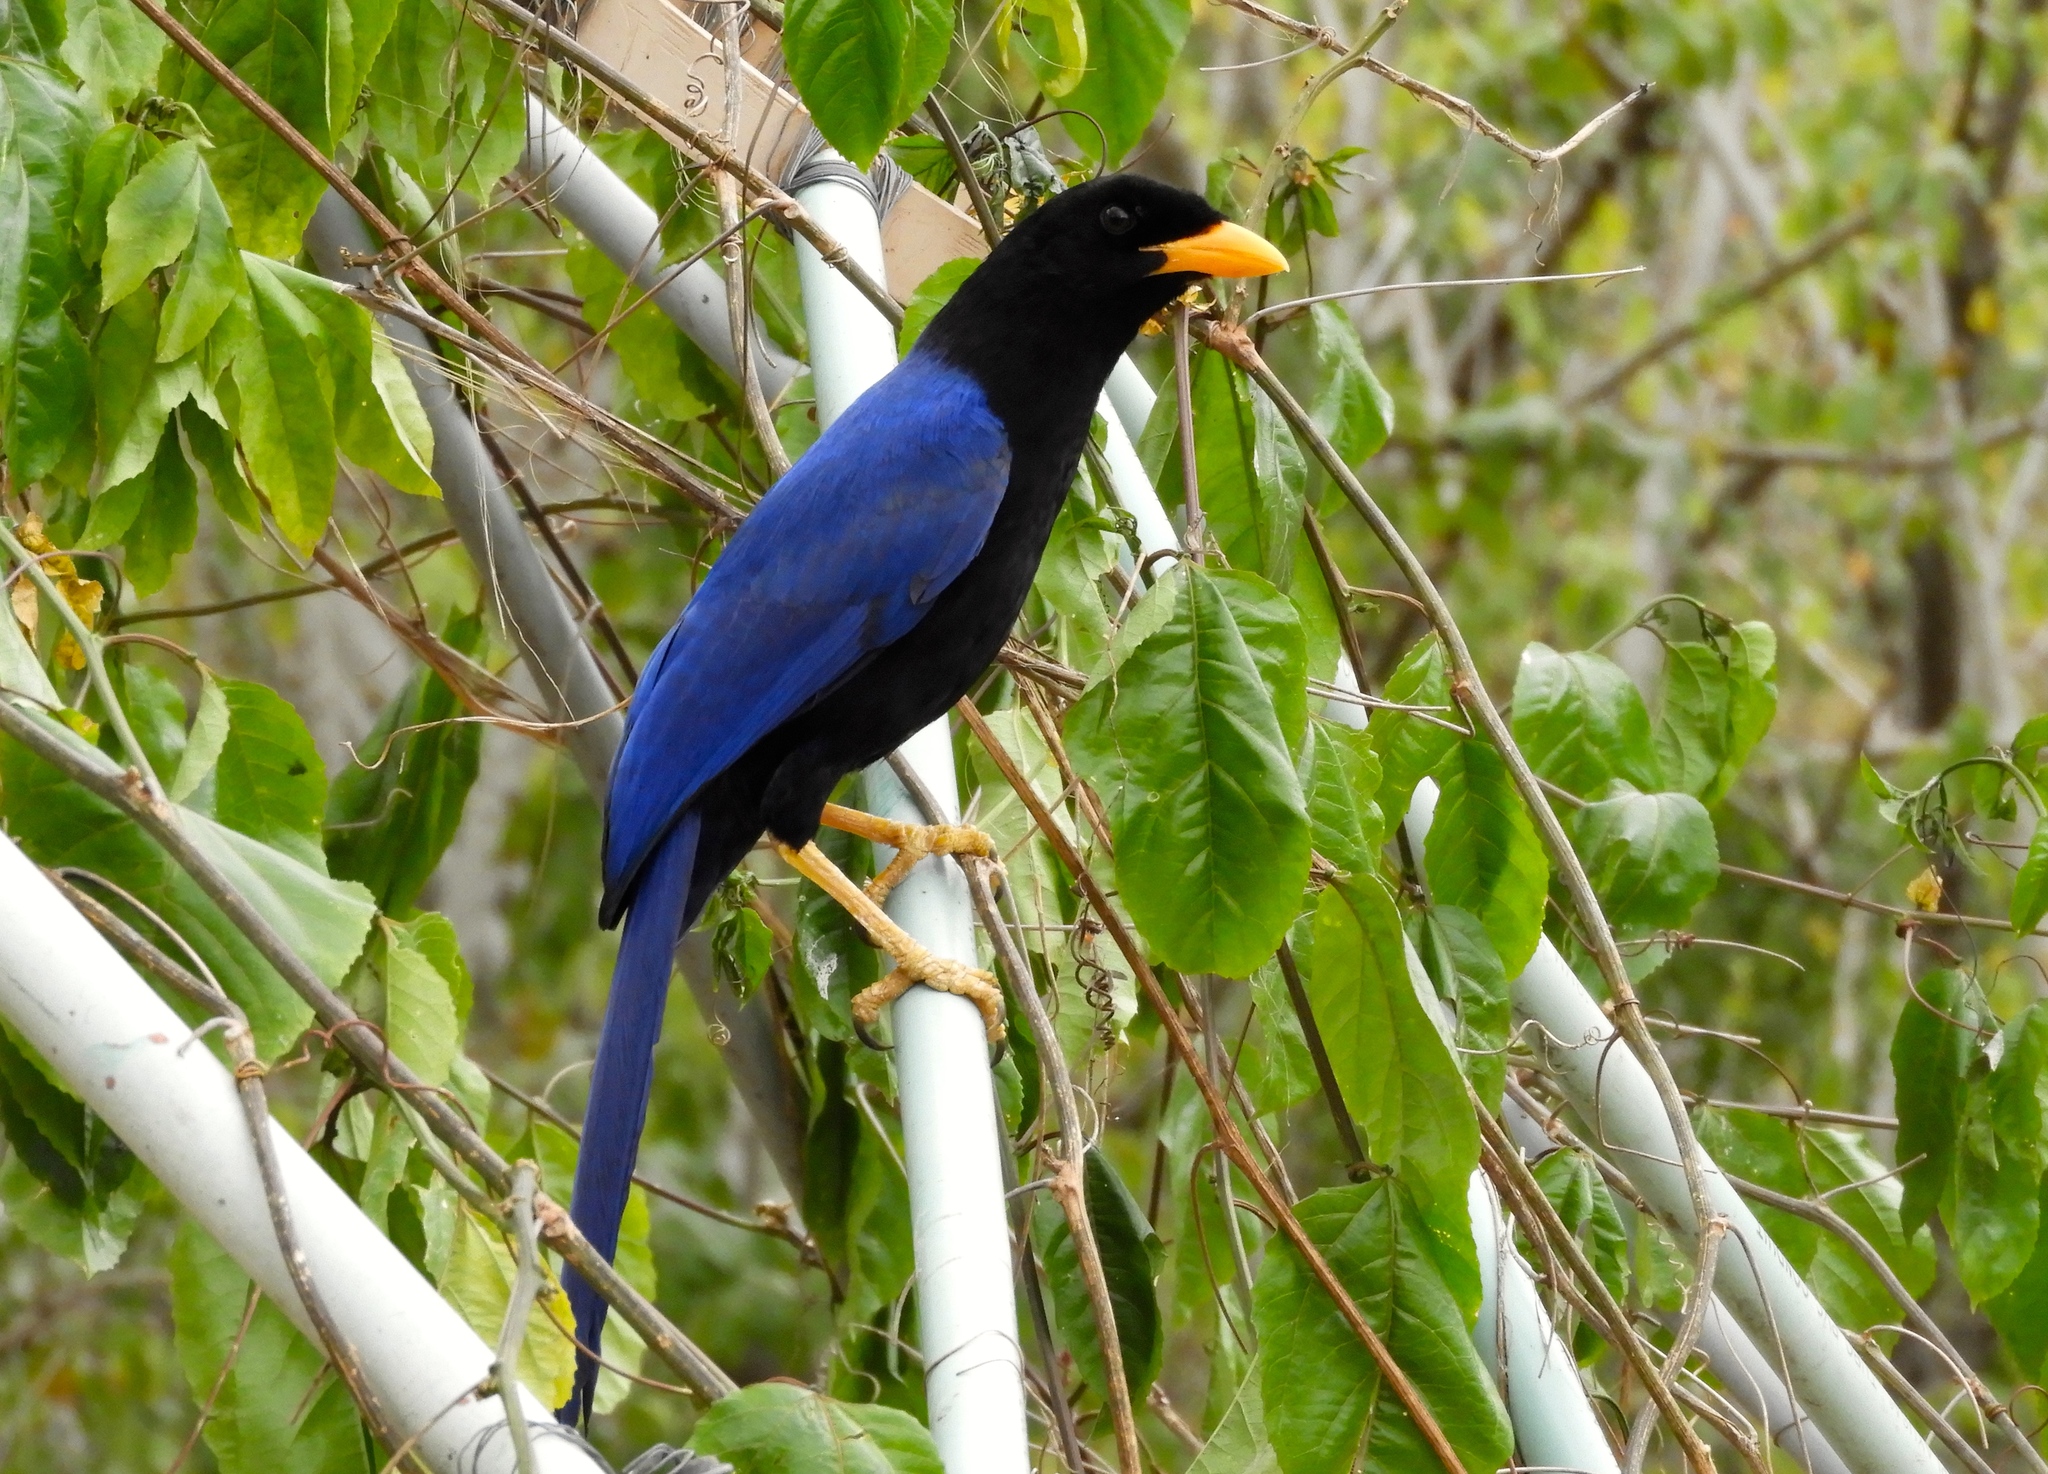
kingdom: Animalia
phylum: Chordata
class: Aves
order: Passeriformes
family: Corvidae
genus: Cyanocorax
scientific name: Cyanocorax beecheii
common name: Purplish-backed jay
